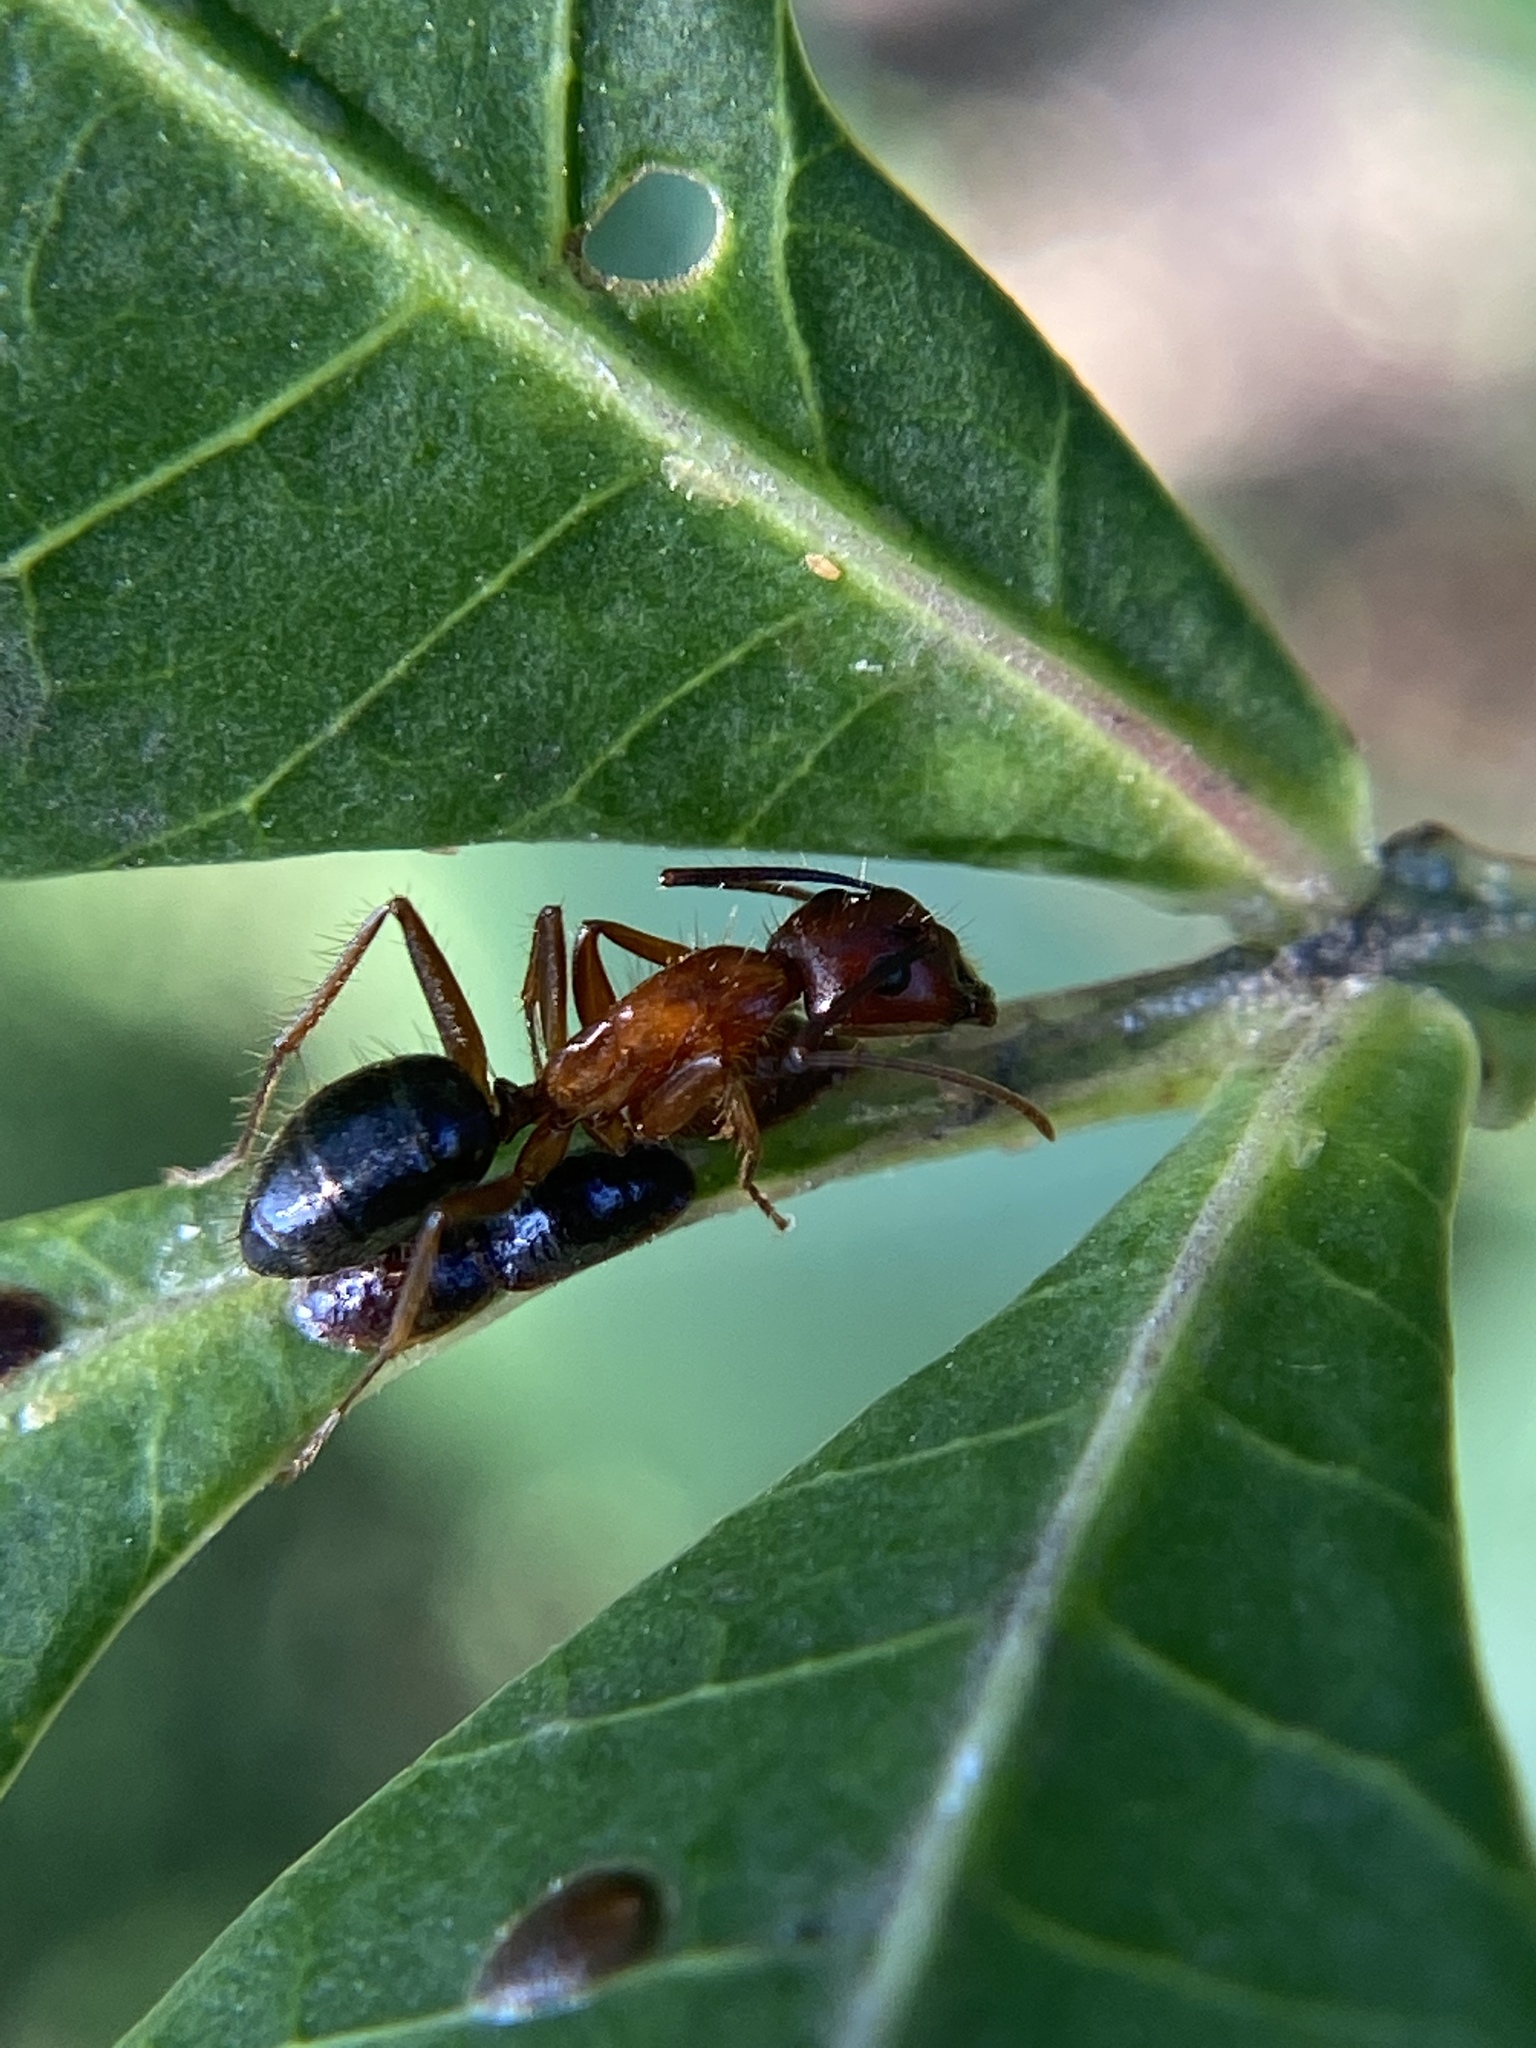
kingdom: Animalia
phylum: Arthropoda
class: Insecta
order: Hymenoptera
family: Formicidae
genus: Camponotus
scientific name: Camponotus floridanus
